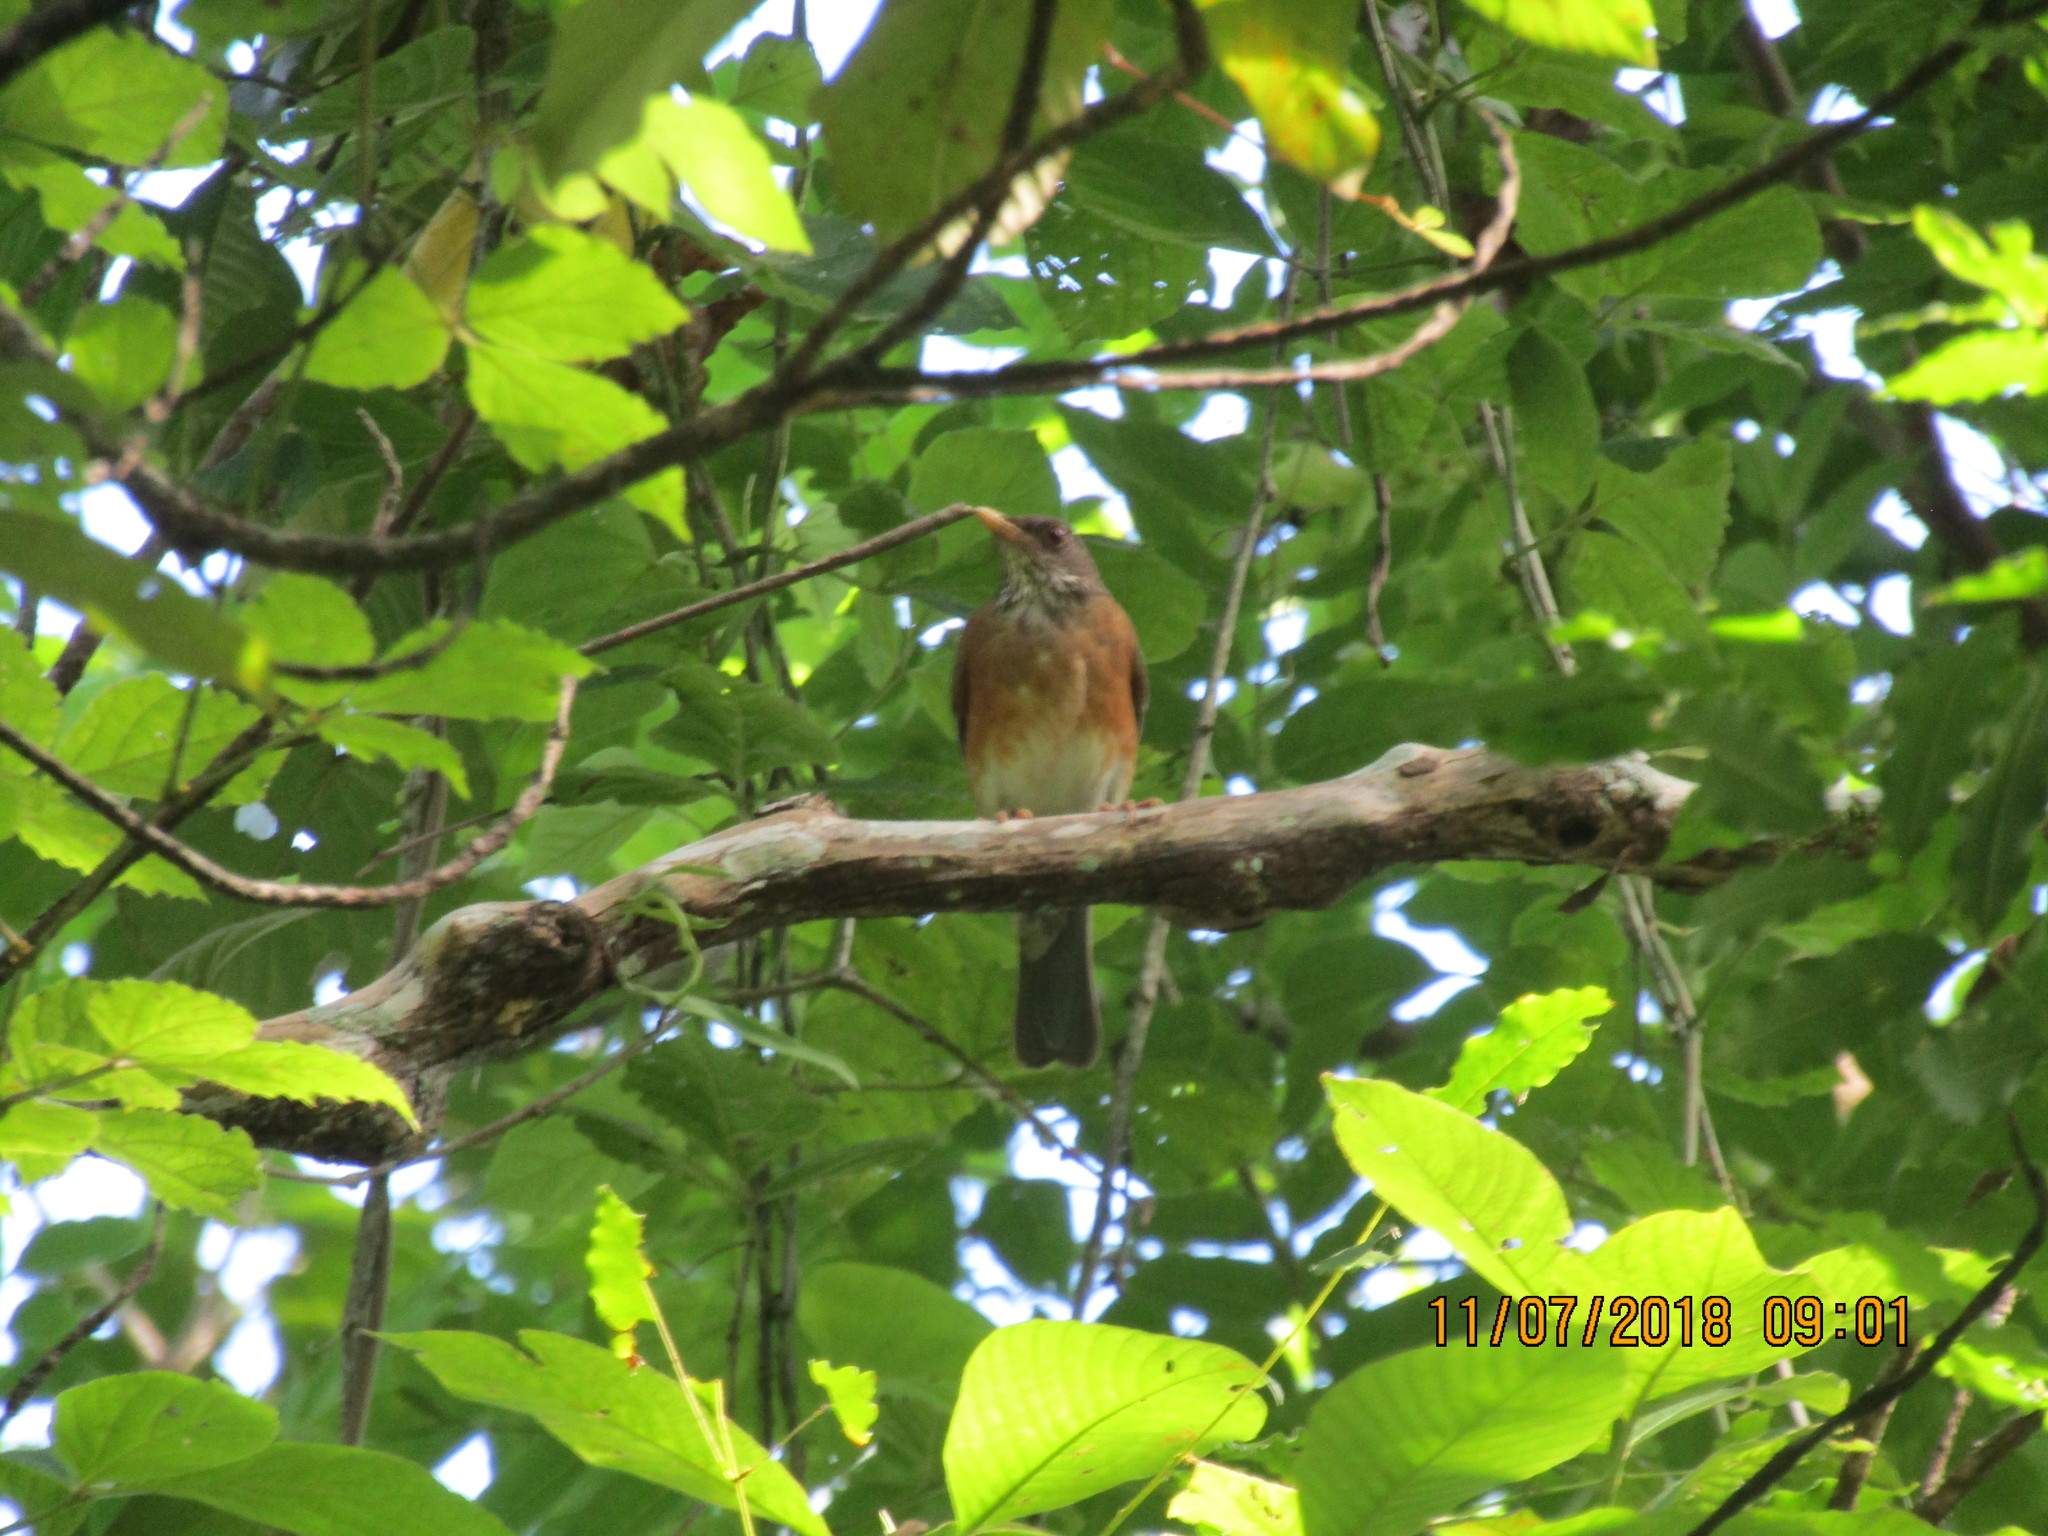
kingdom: Animalia
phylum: Chordata
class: Aves
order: Passeriformes
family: Turdidae
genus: Turdus
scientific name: Turdus rufopalliatus
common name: Rufous-backed robin
